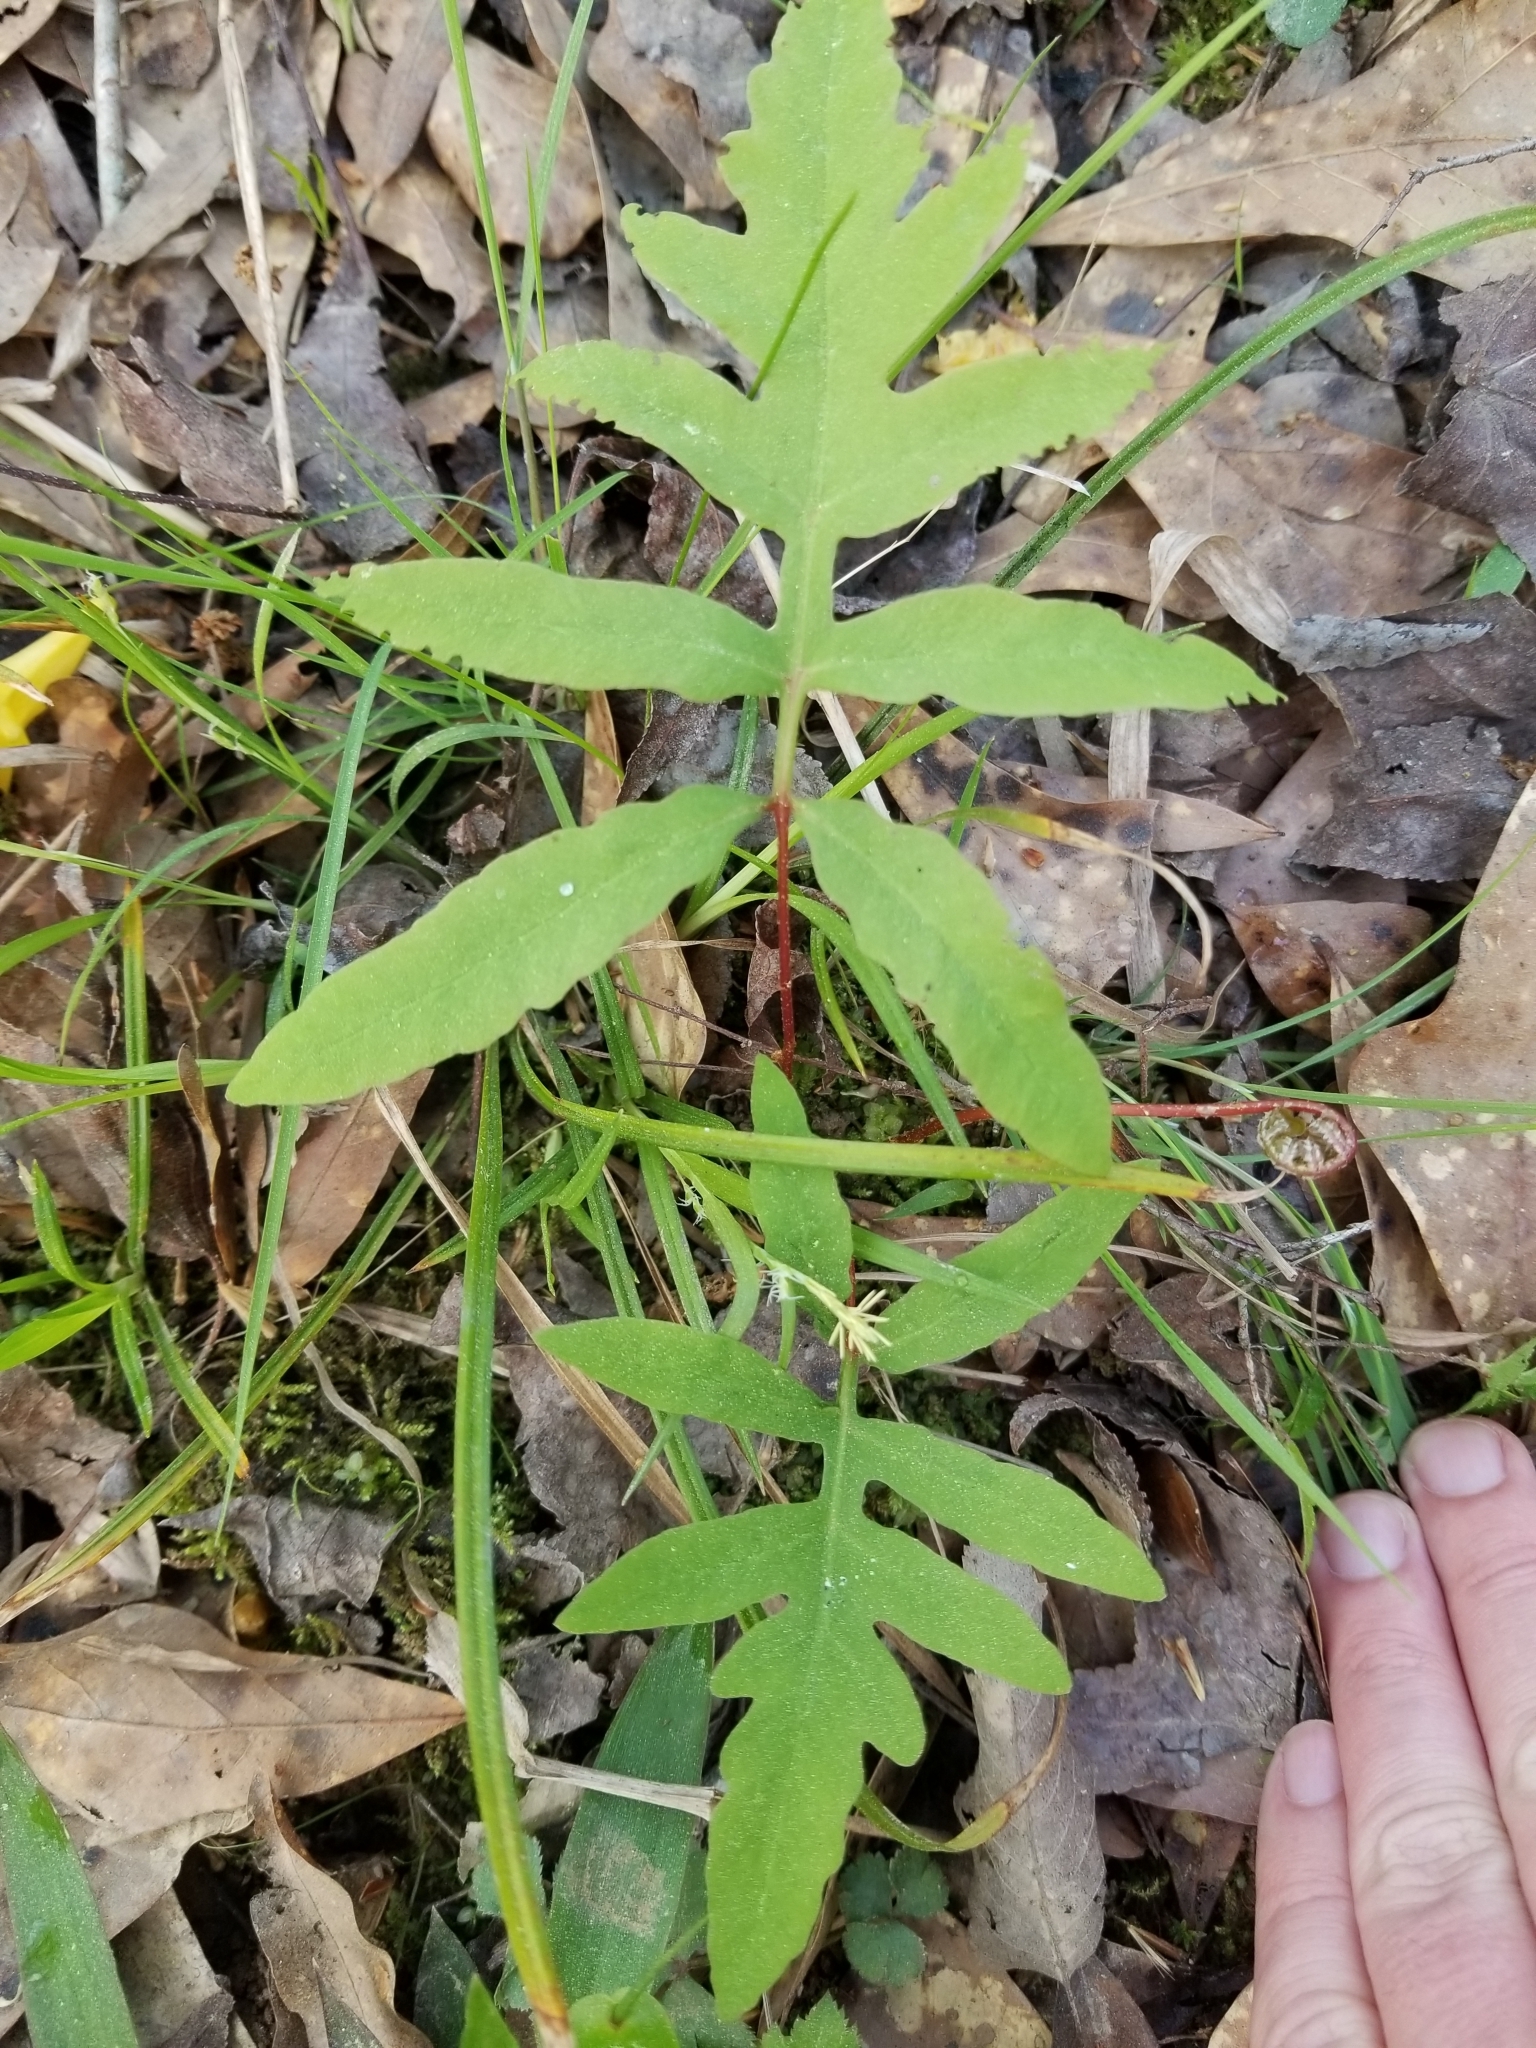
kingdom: Plantae
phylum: Tracheophyta
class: Polypodiopsida
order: Polypodiales
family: Onocleaceae
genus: Onoclea
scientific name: Onoclea sensibilis
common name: Sensitive fern
